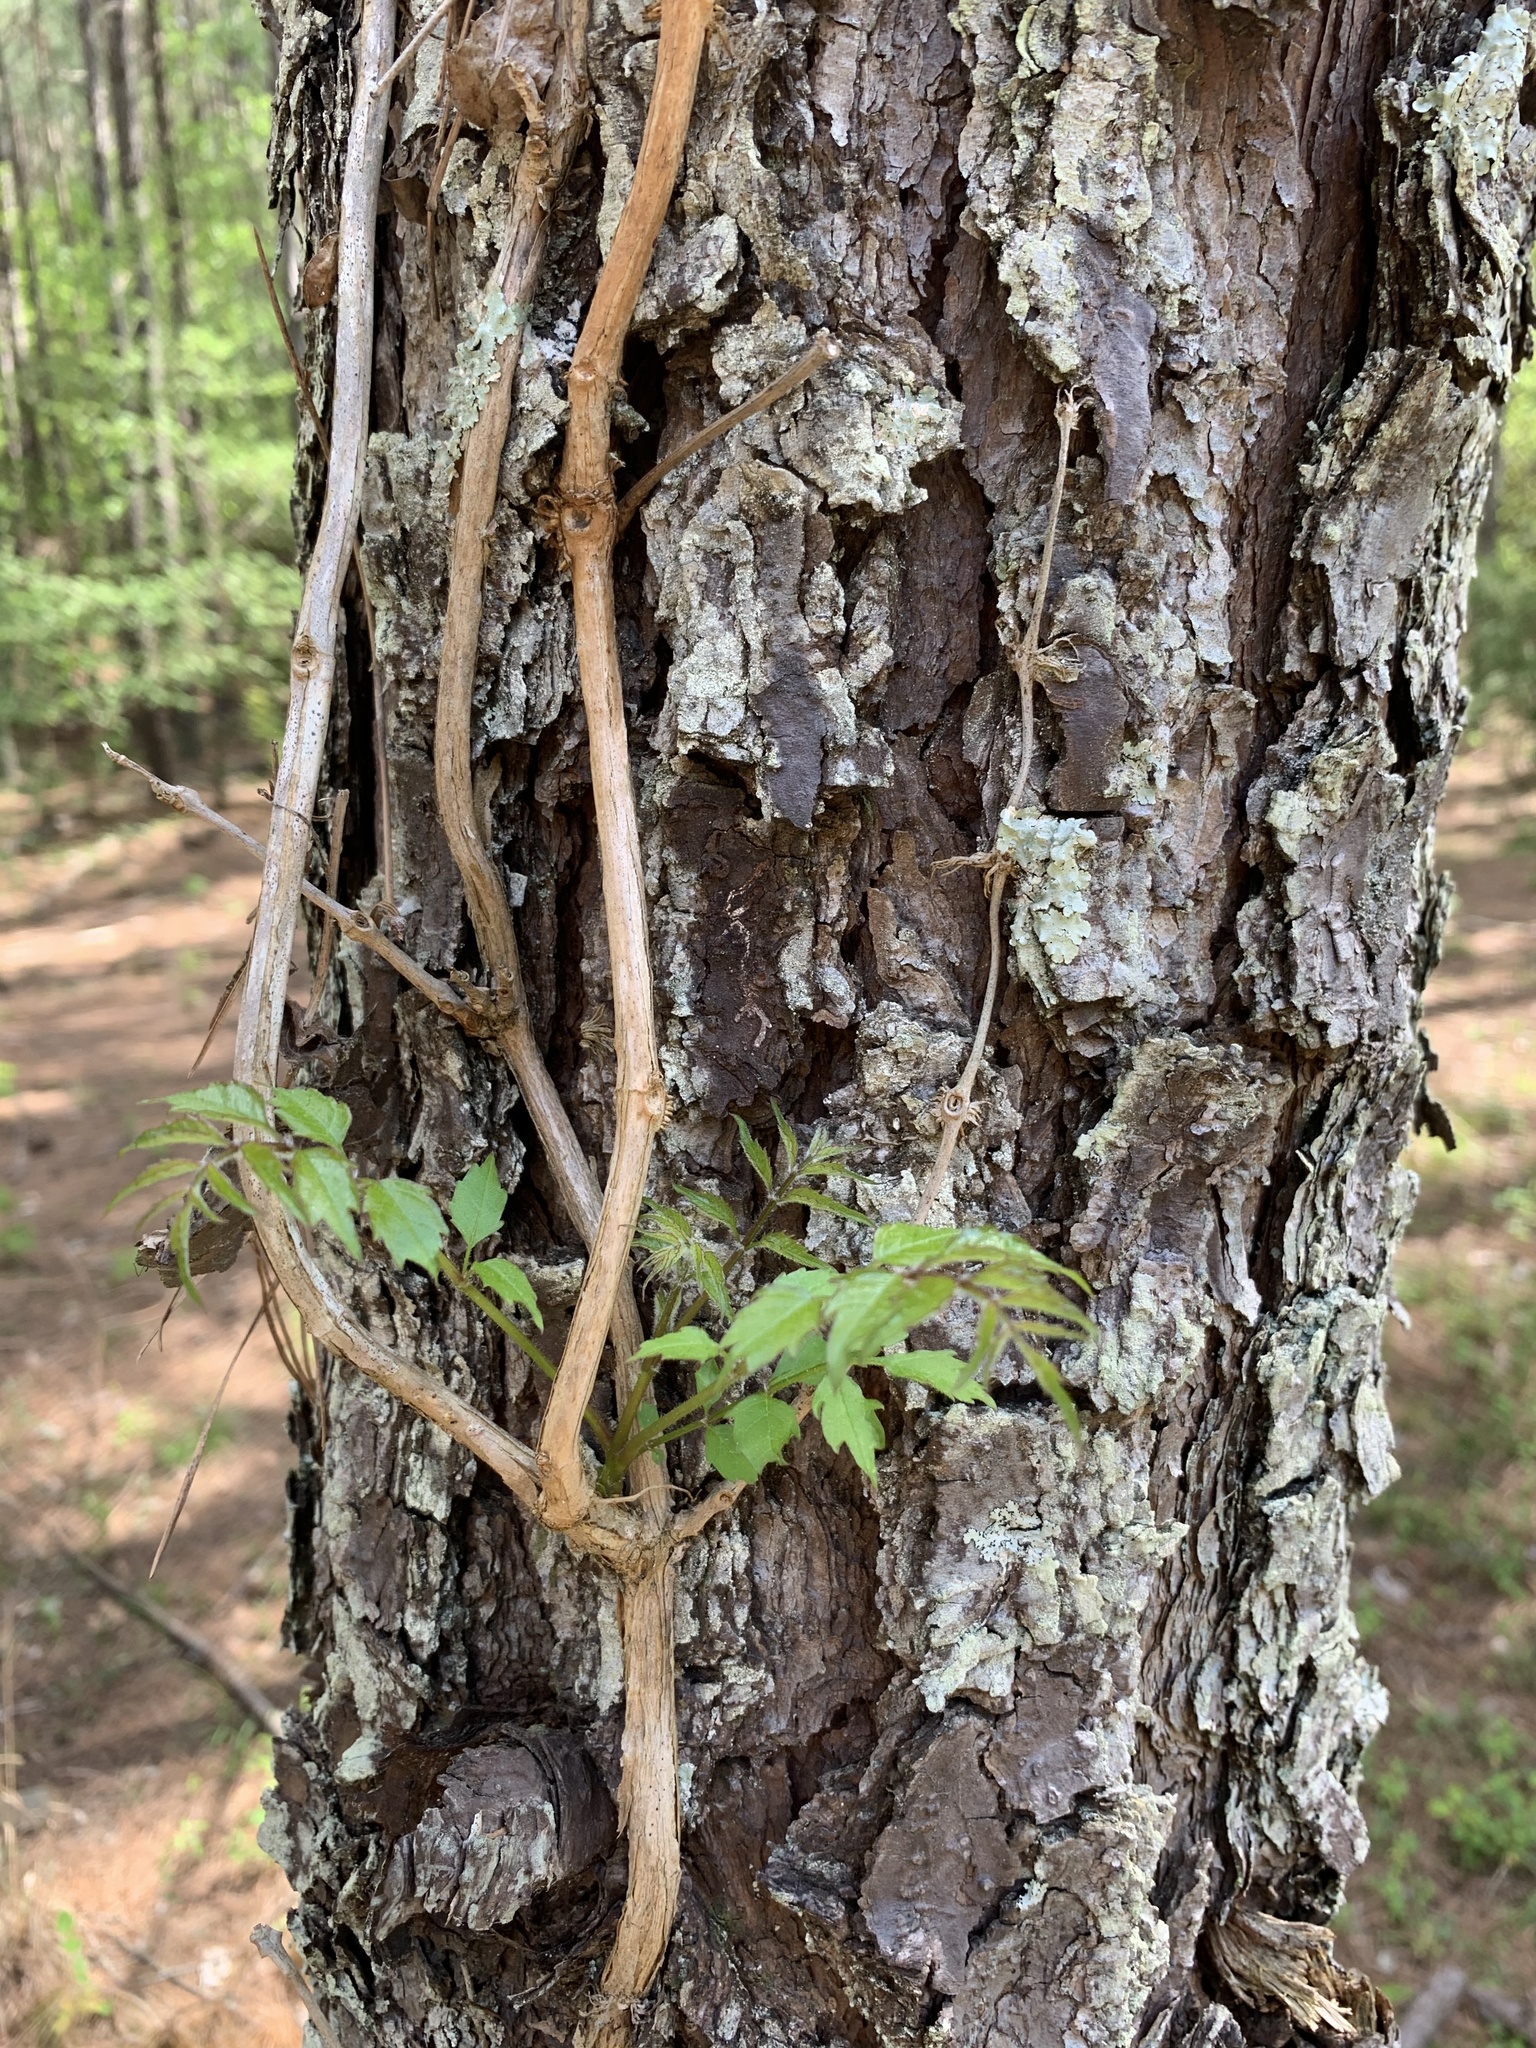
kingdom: Plantae
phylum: Tracheophyta
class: Magnoliopsida
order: Lamiales
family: Bignoniaceae
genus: Campsis
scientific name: Campsis radicans
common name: Trumpet-creeper
